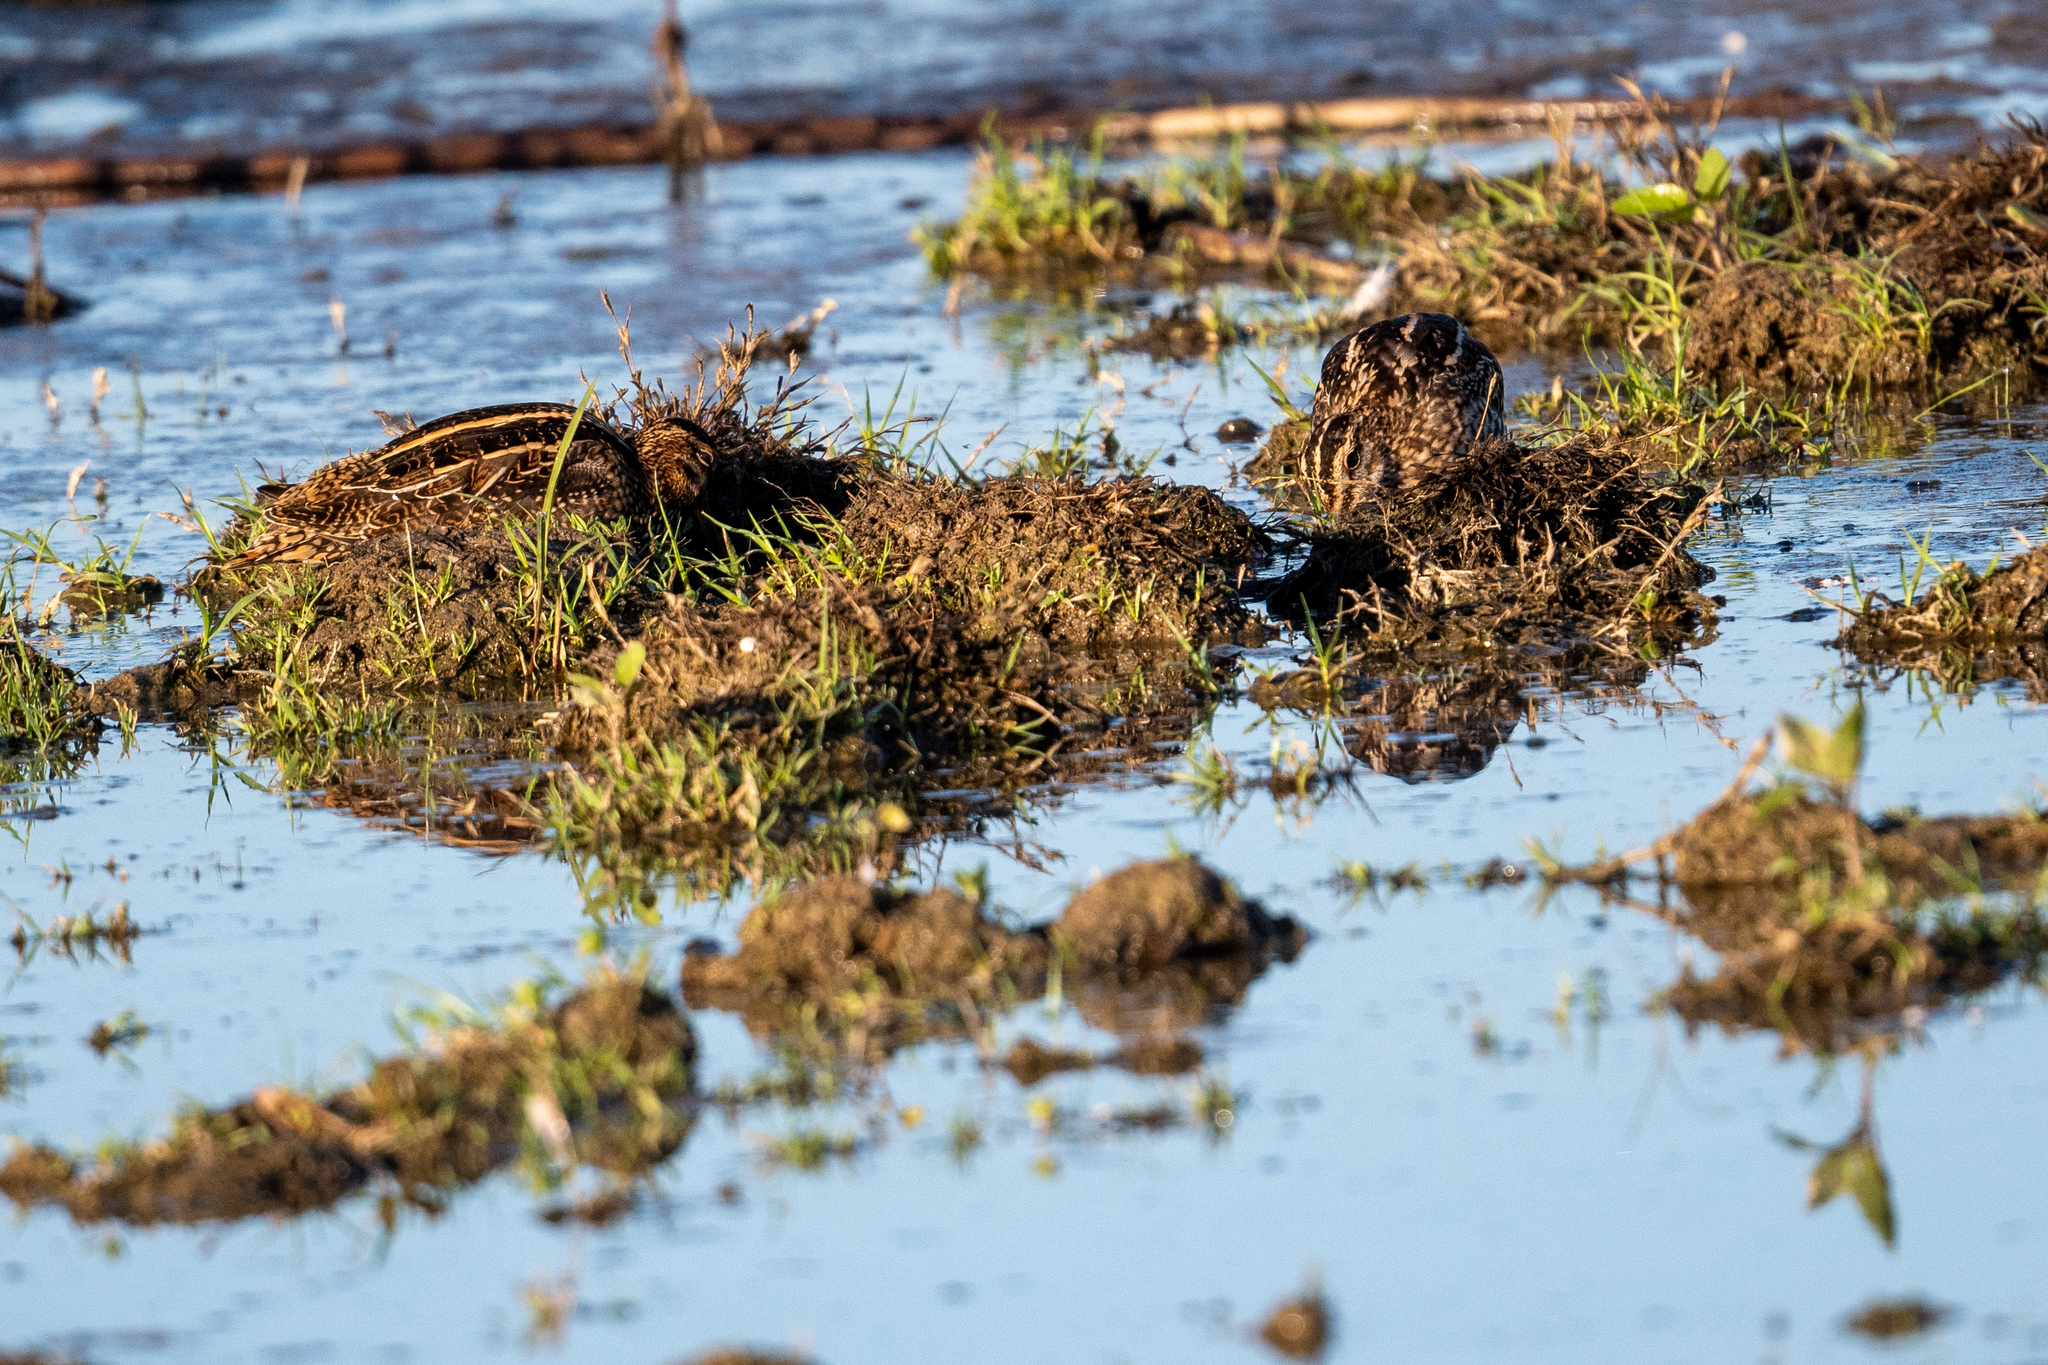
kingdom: Animalia
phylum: Chordata
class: Aves
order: Charadriiformes
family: Scolopacidae
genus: Gallinago
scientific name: Gallinago delicata
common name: Wilson's snipe
